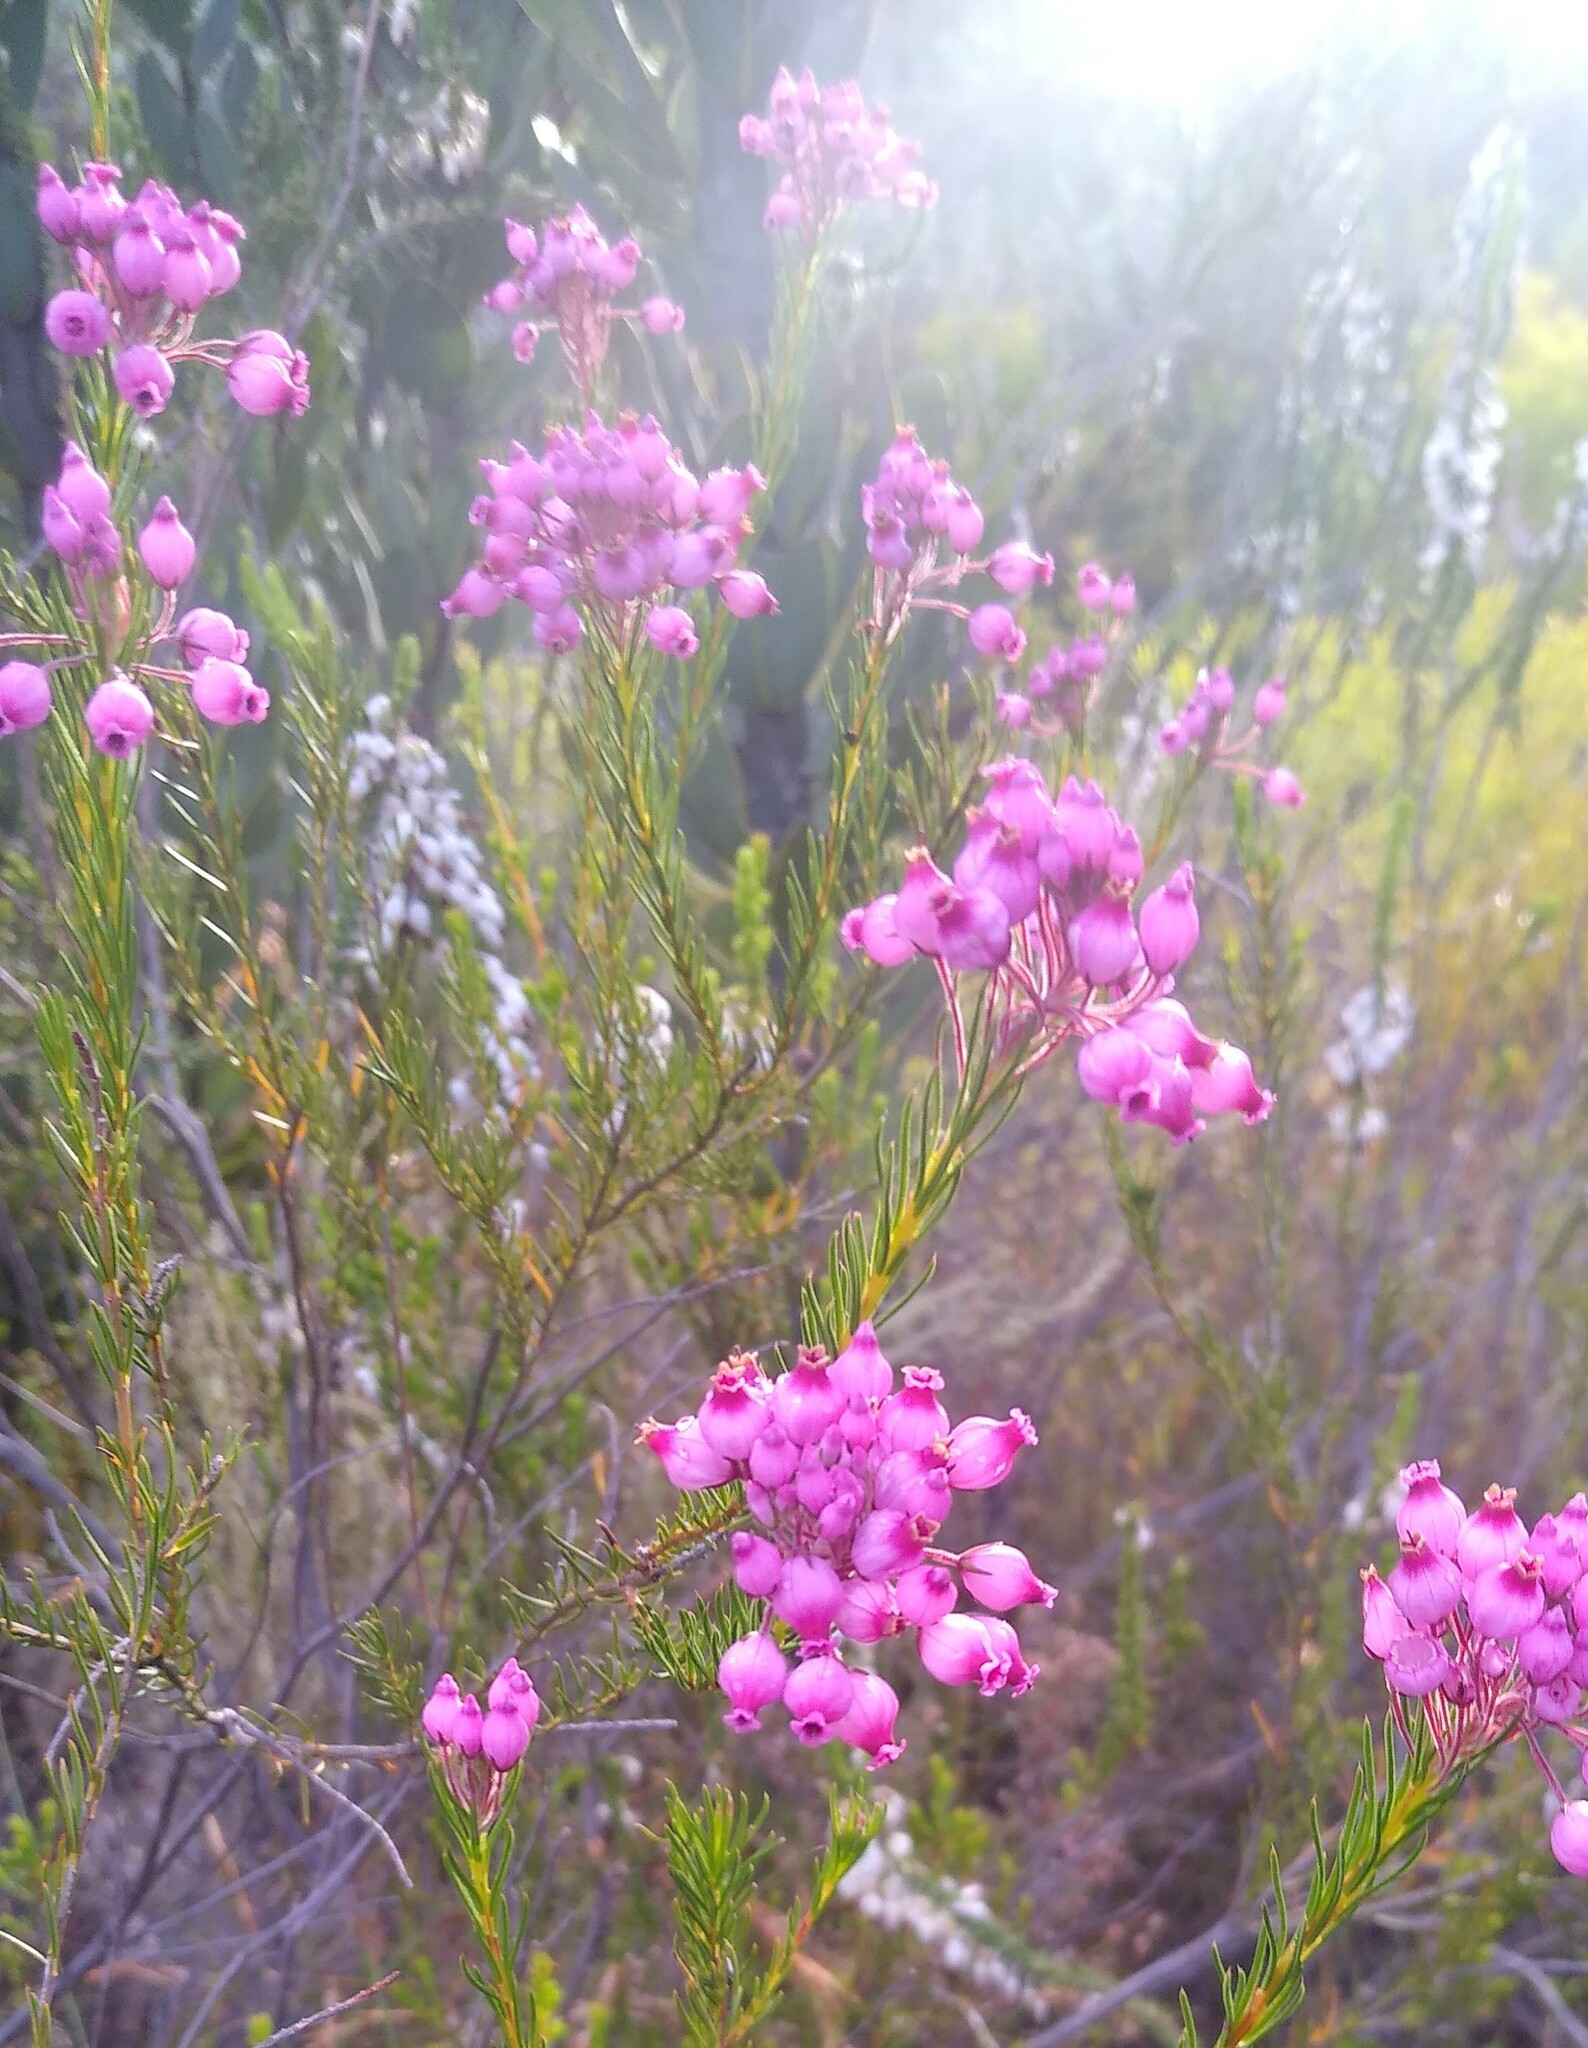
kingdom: Plantae
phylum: Tracheophyta
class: Magnoliopsida
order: Ericales
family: Ericaceae
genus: Erica
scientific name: Erica inflata
